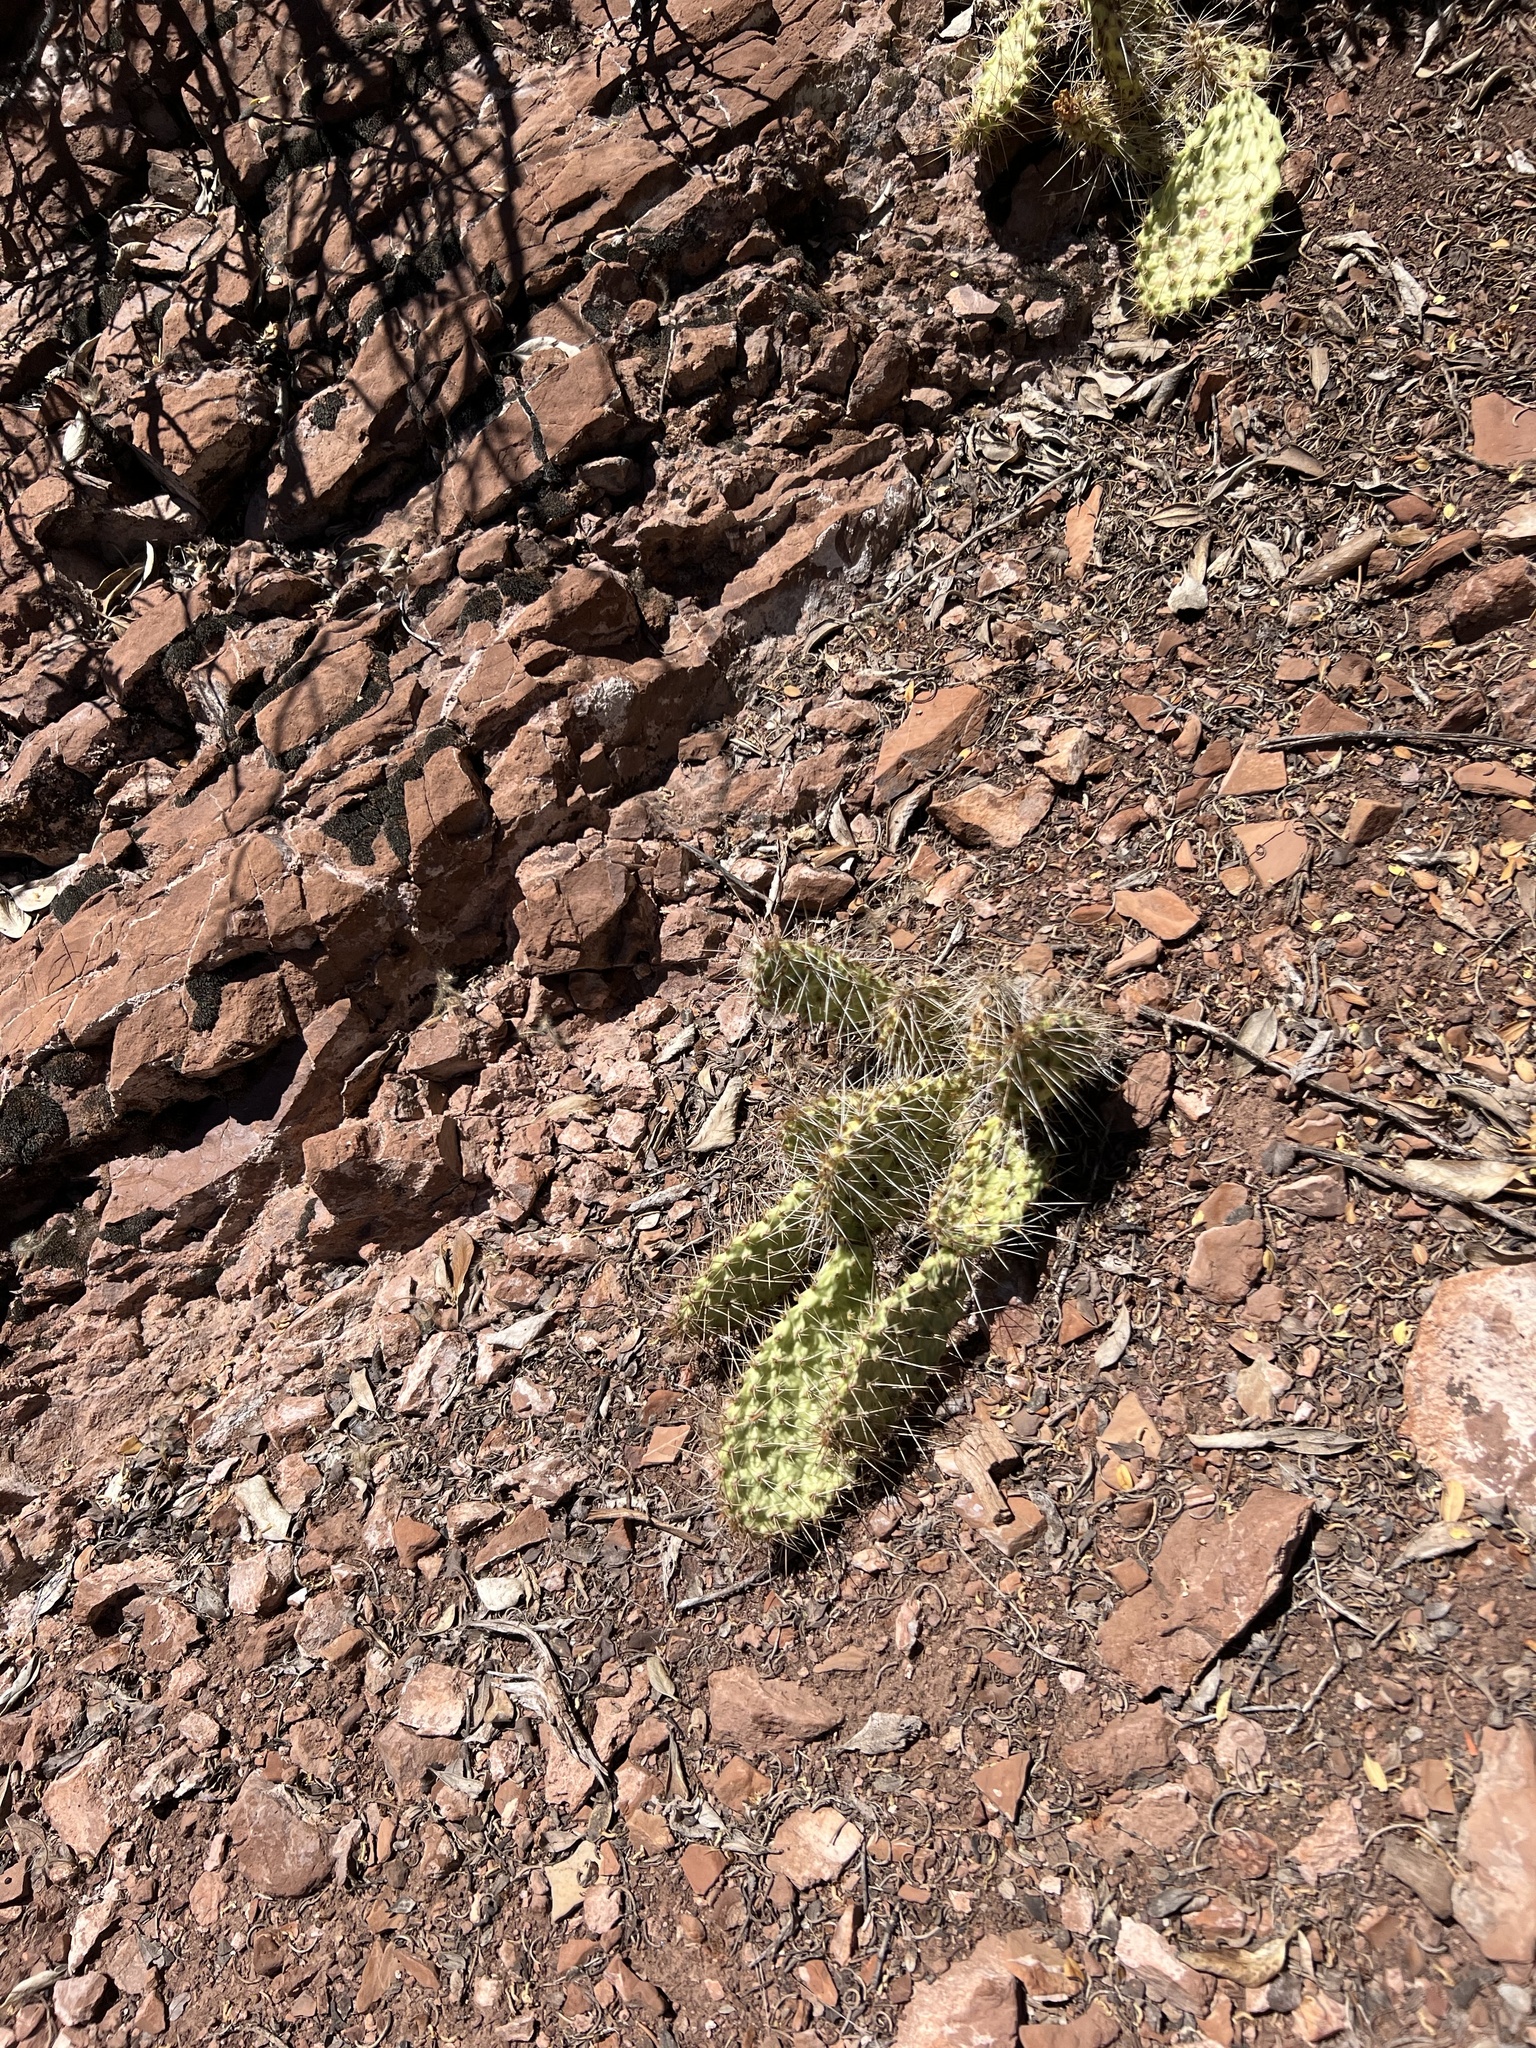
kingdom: Plantae
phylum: Tracheophyta
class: Magnoliopsida
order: Caryophyllales
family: Cactaceae
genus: Opuntia
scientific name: Opuntia polyacantha
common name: Plains prickly-pear
